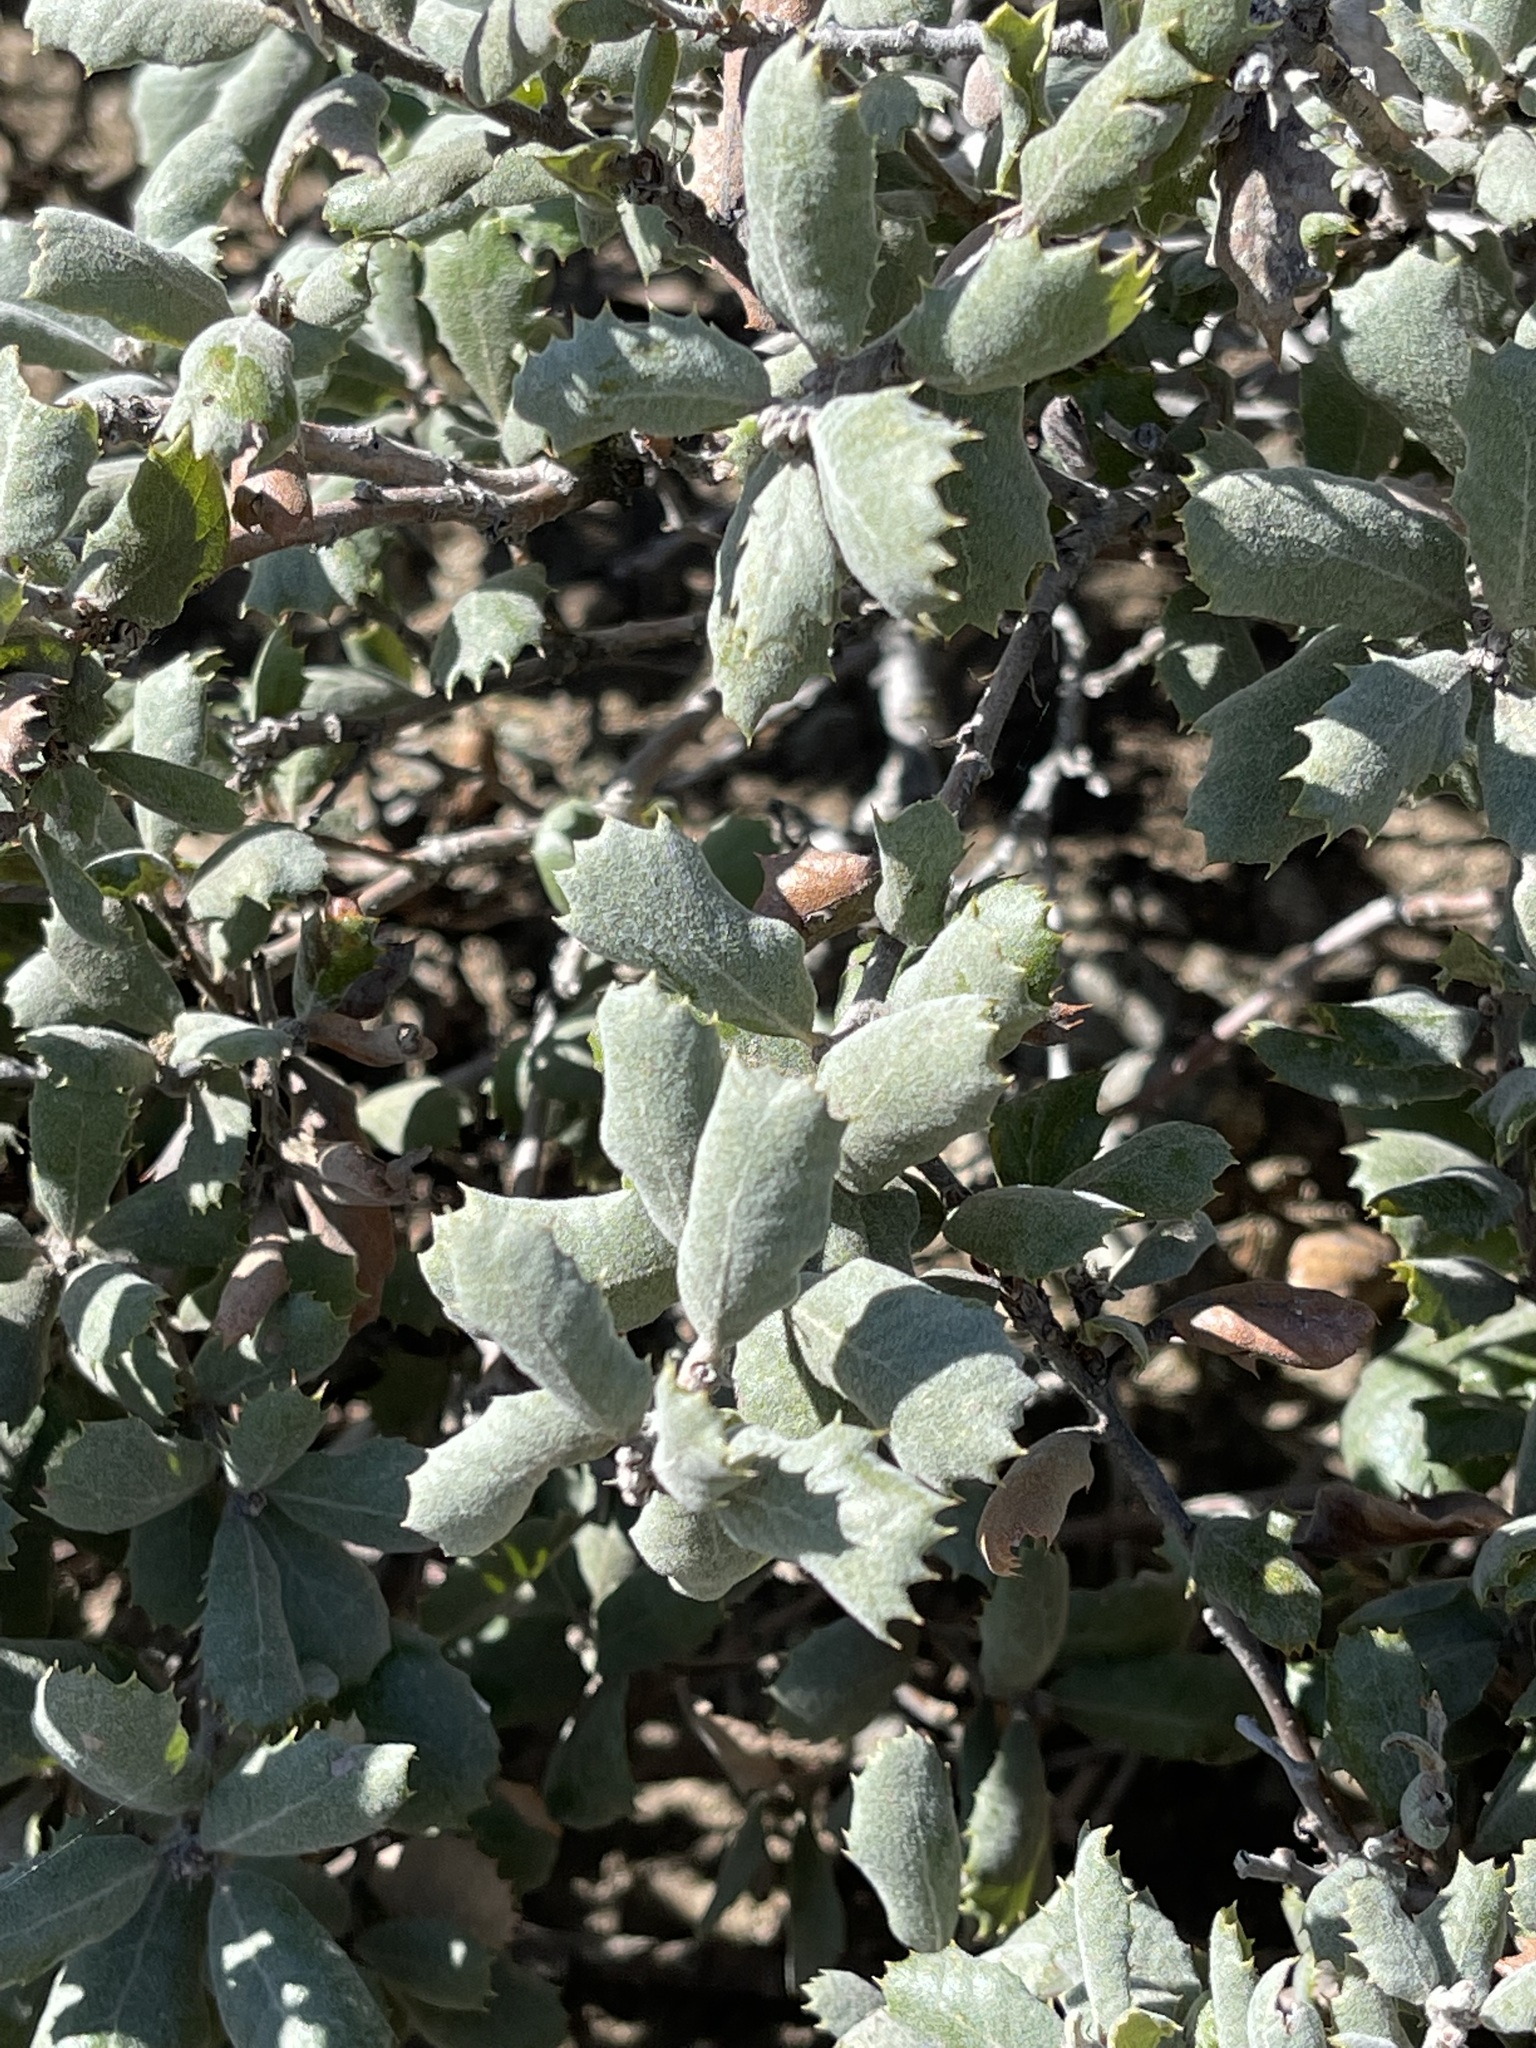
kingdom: Plantae
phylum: Tracheophyta
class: Magnoliopsida
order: Fagales
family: Fagaceae
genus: Quercus
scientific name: Quercus durata
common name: Leather oak
